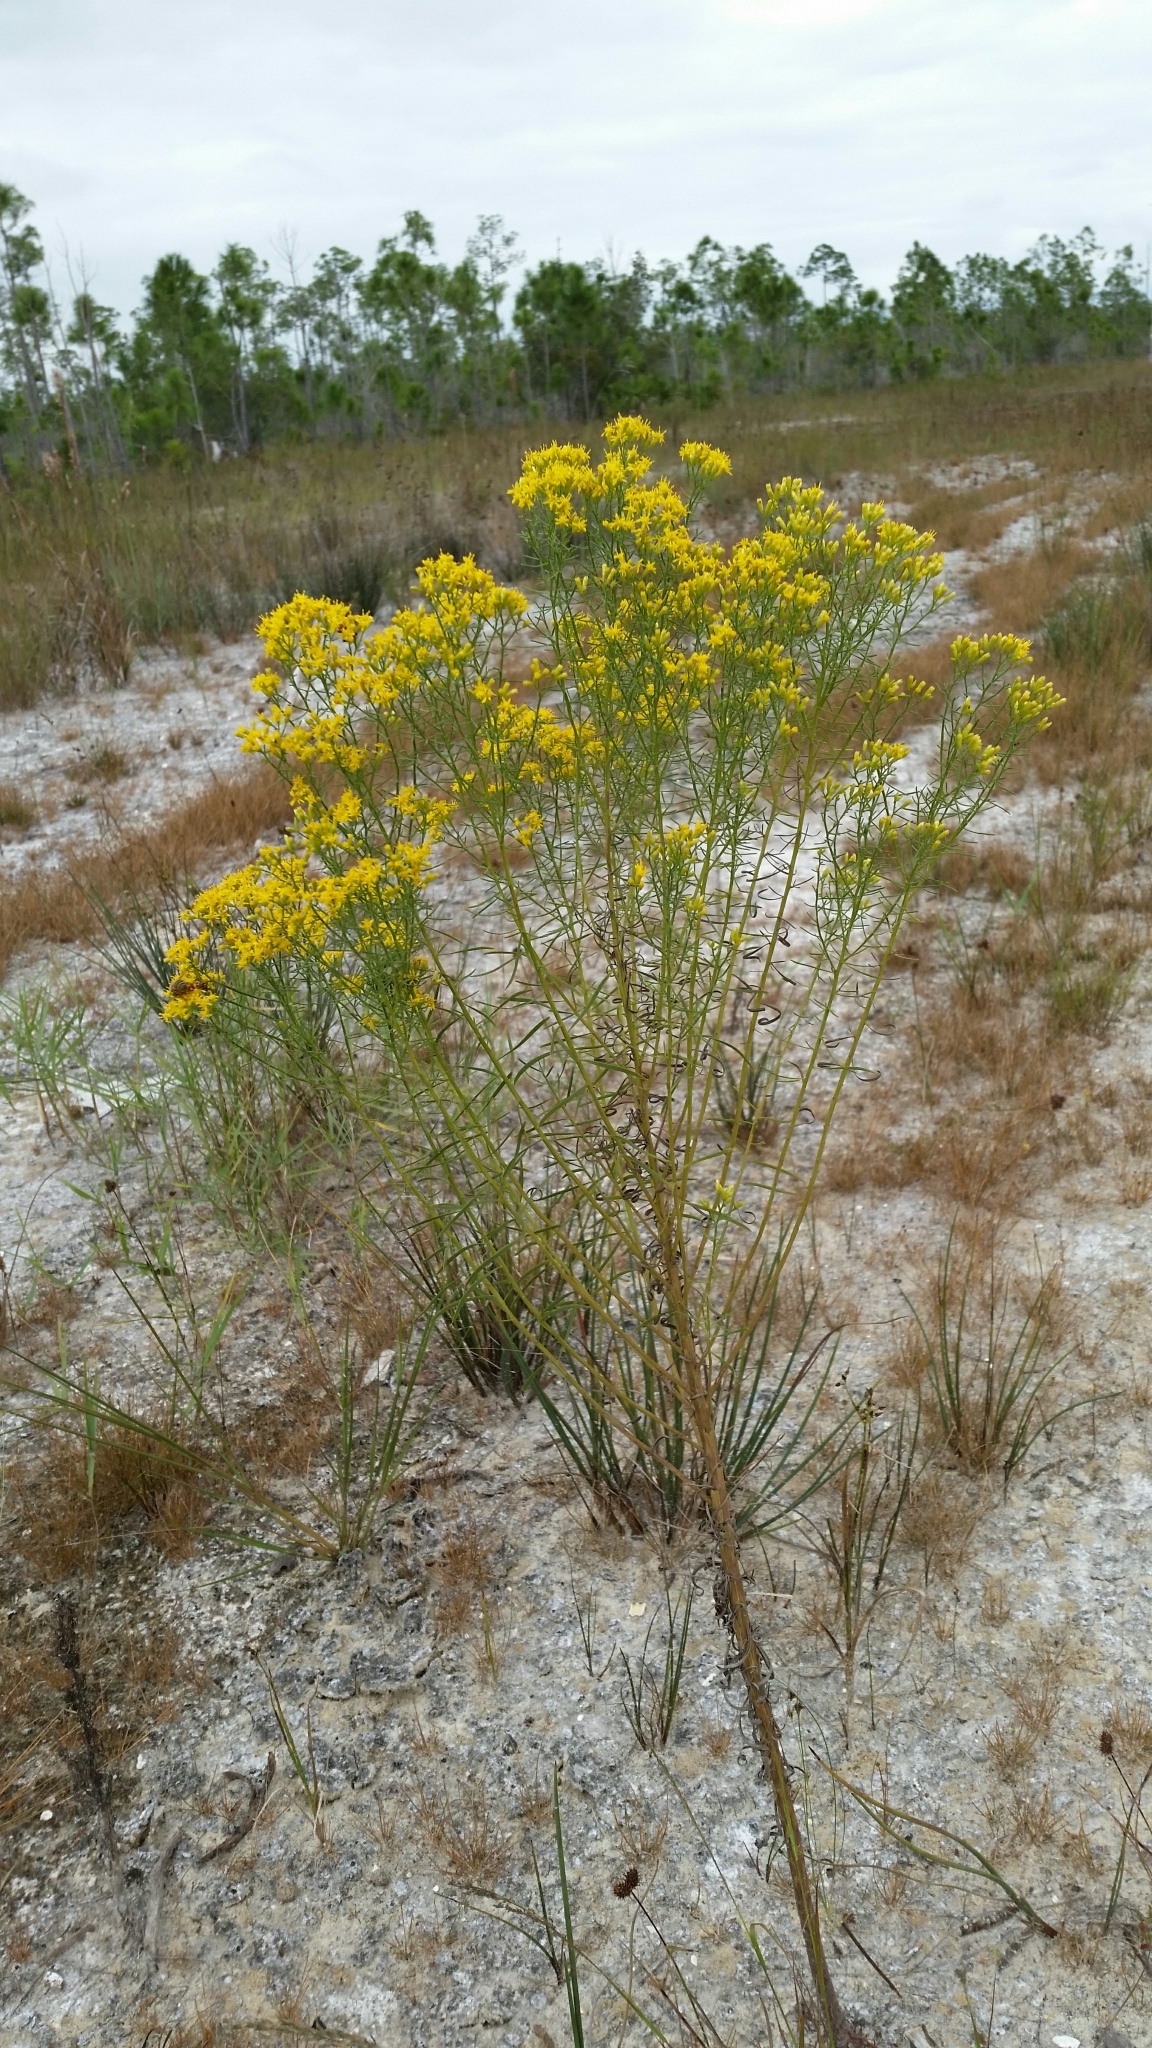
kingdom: Plantae
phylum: Tracheophyta
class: Magnoliopsida
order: Asterales
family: Asteraceae
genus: Euthamia
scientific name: Euthamia caroliniana
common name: Coastal plain goldentop
